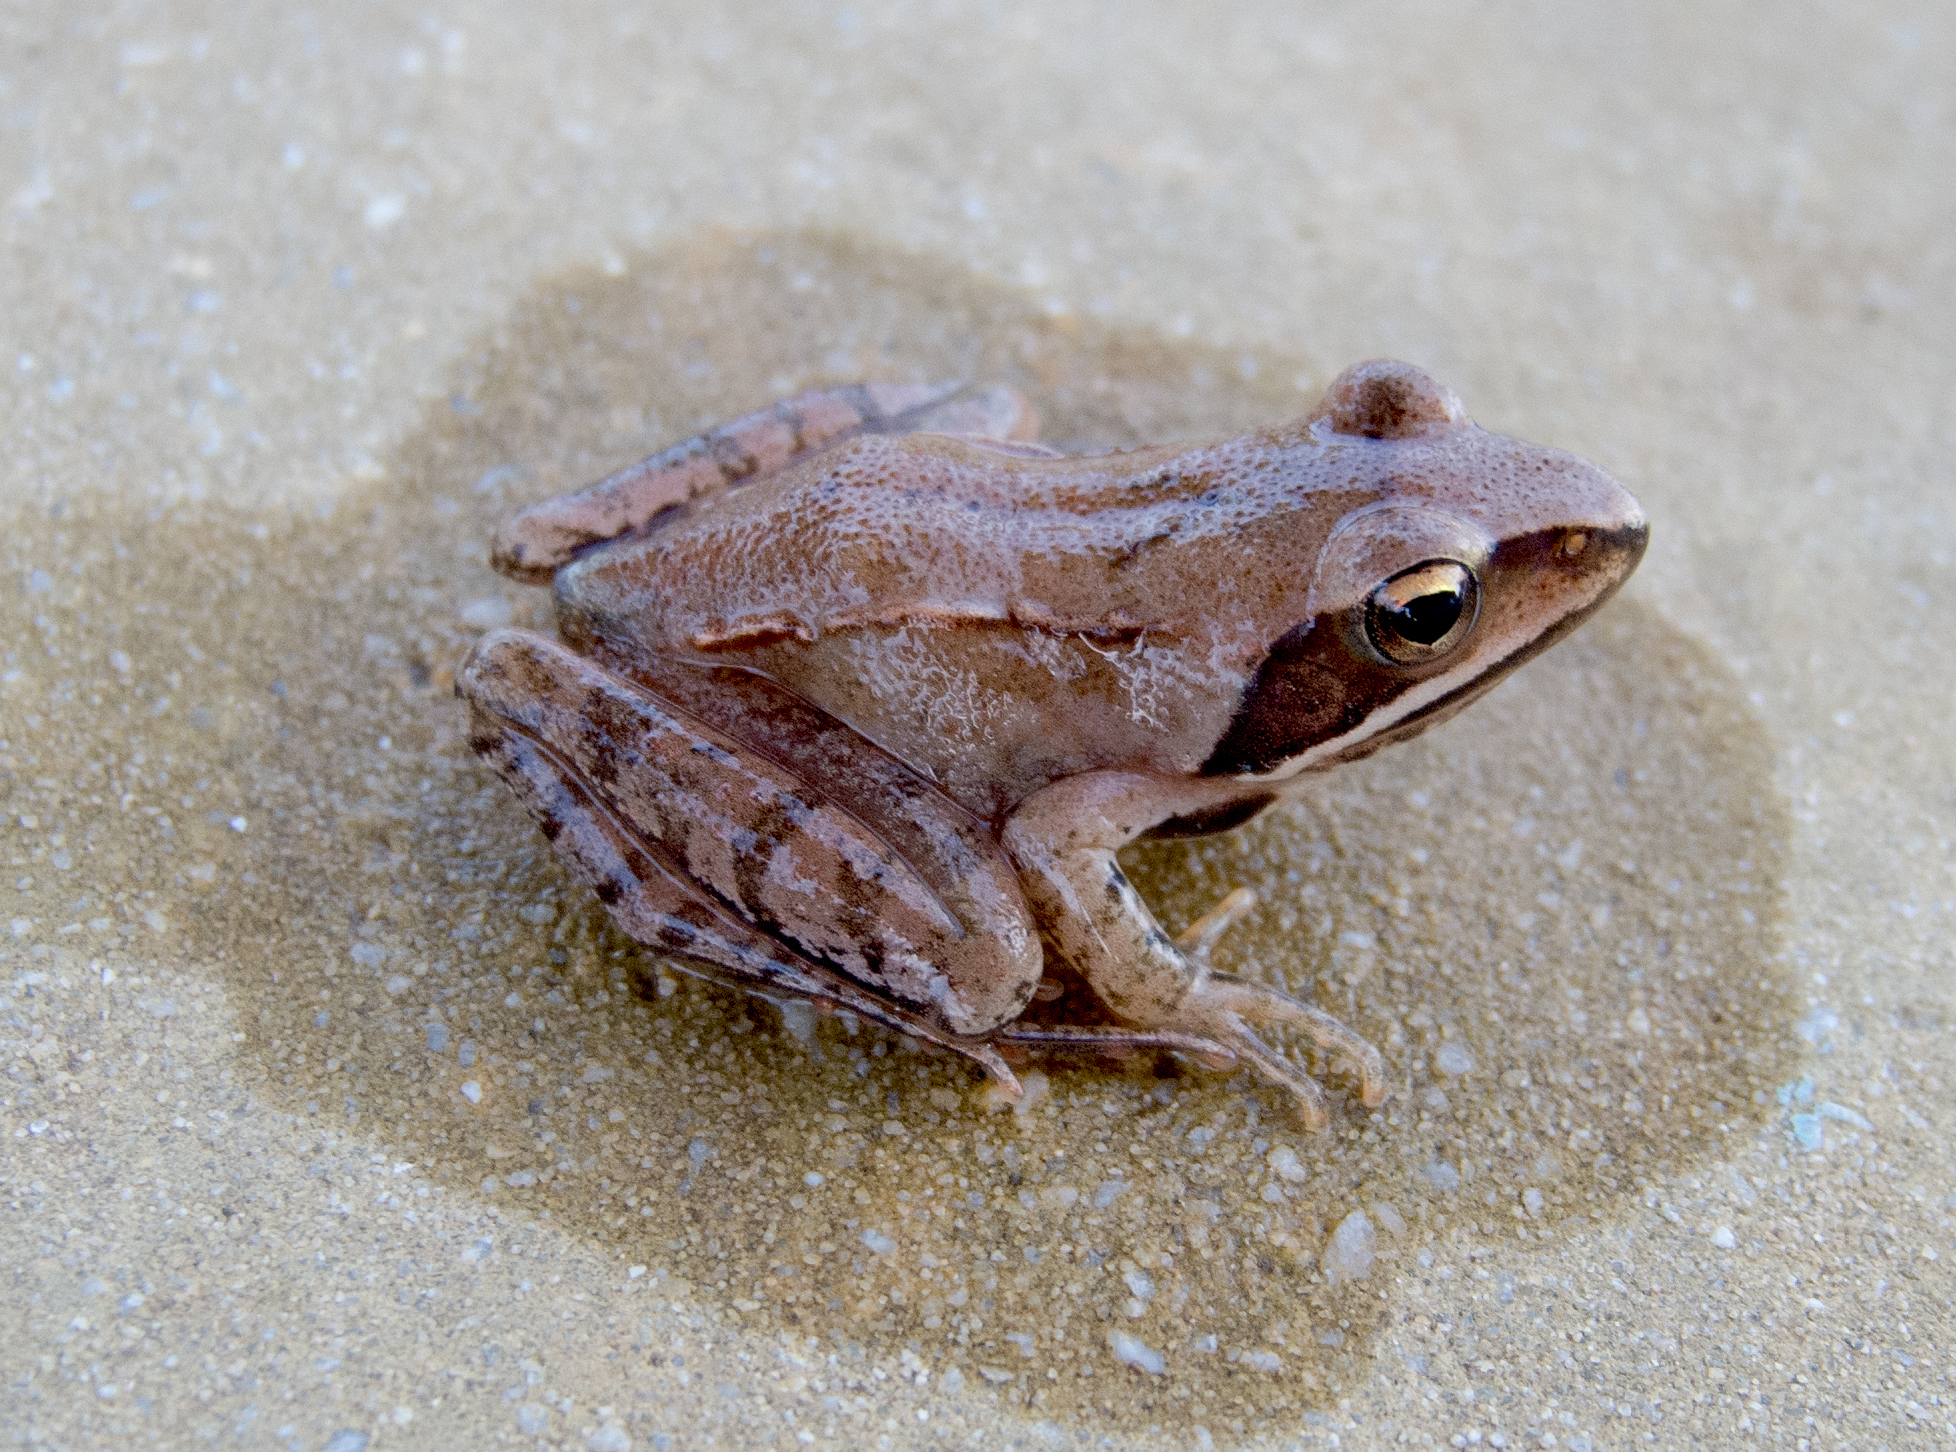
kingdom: Animalia
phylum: Chordata
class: Amphibia
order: Anura
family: Ranidae
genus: Rana
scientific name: Rana dalmatina
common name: Agile frog
